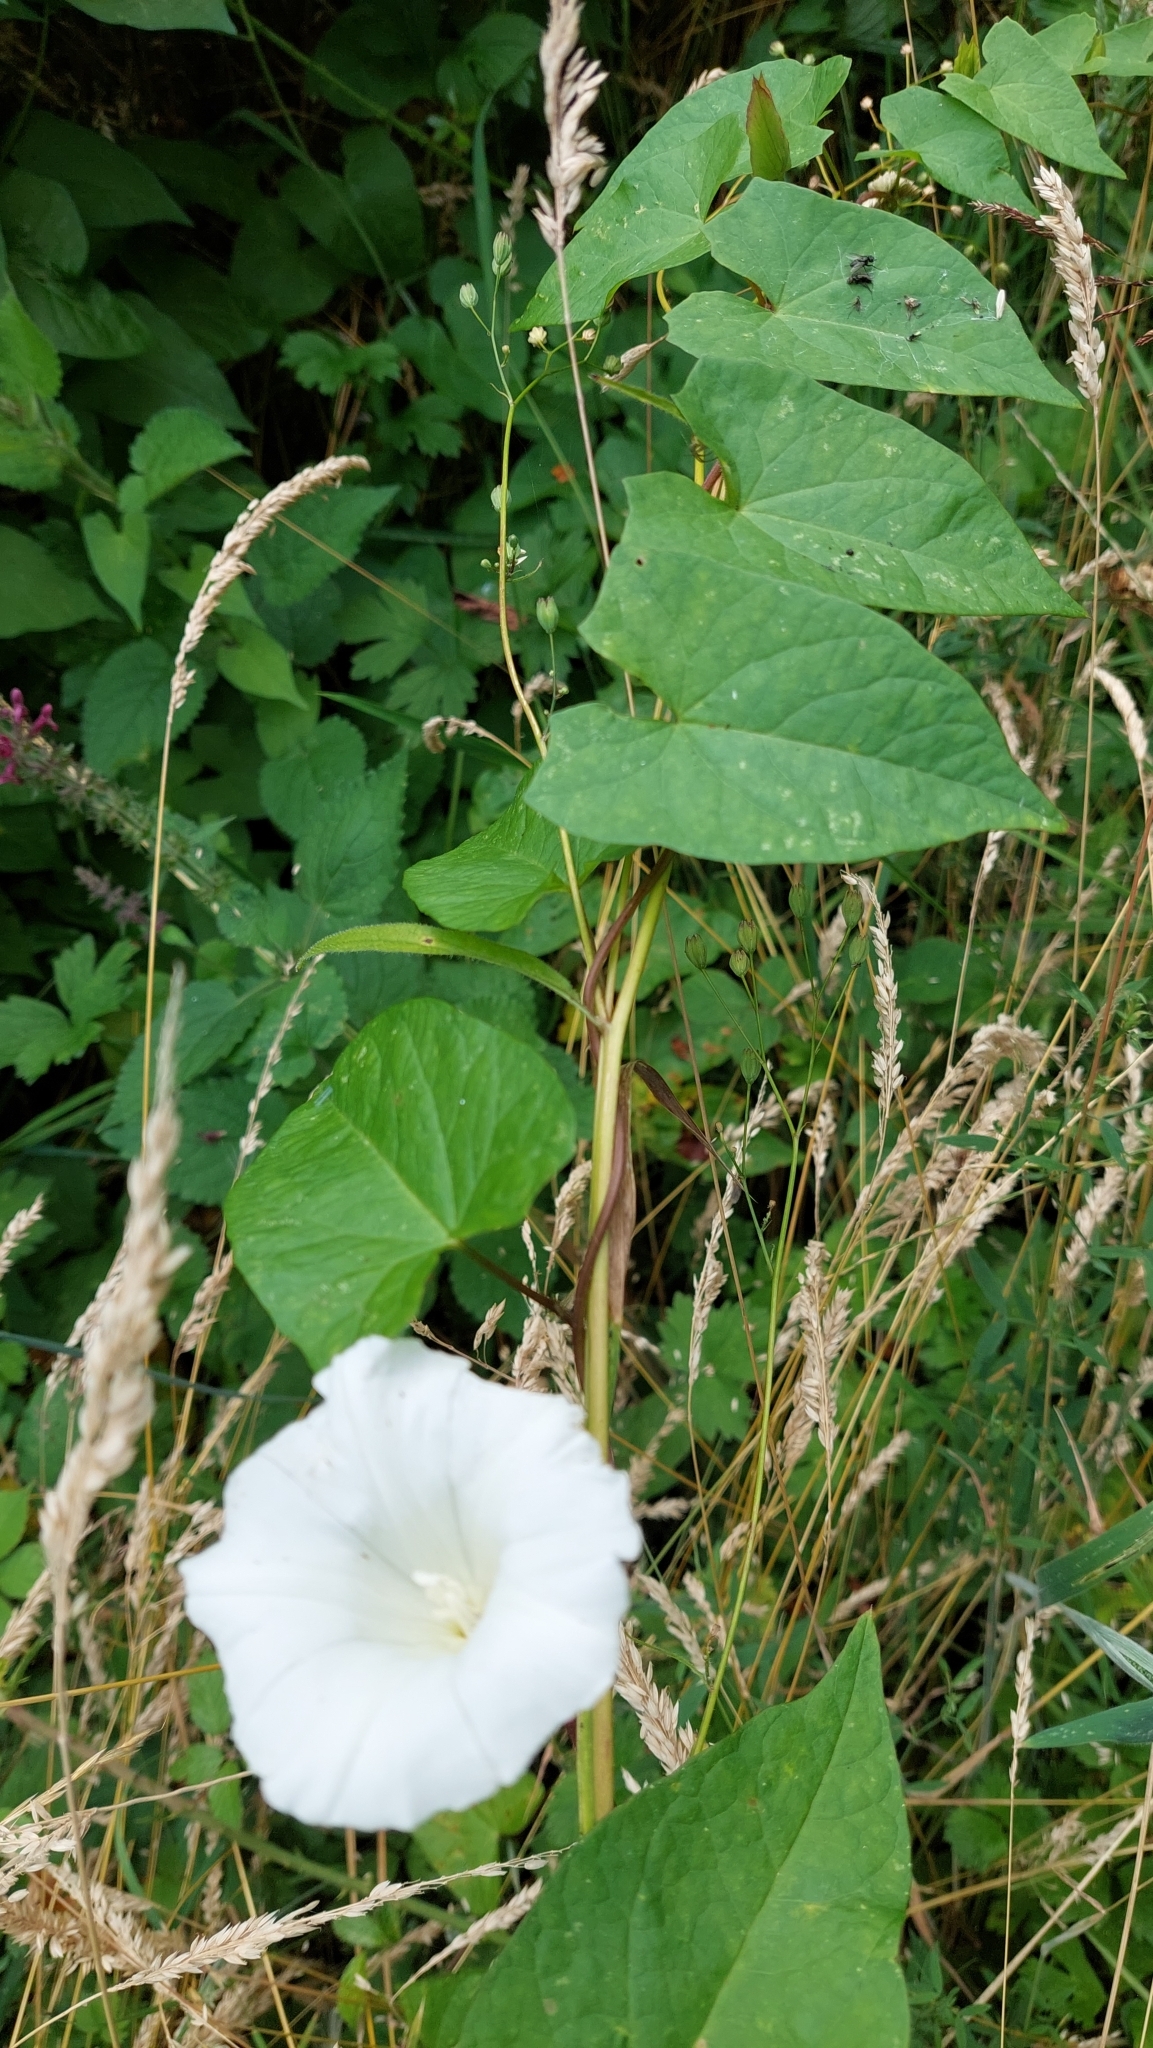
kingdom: Plantae
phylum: Tracheophyta
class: Magnoliopsida
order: Solanales
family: Convolvulaceae
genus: Calystegia
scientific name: Calystegia sepium
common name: Hedge bindweed
